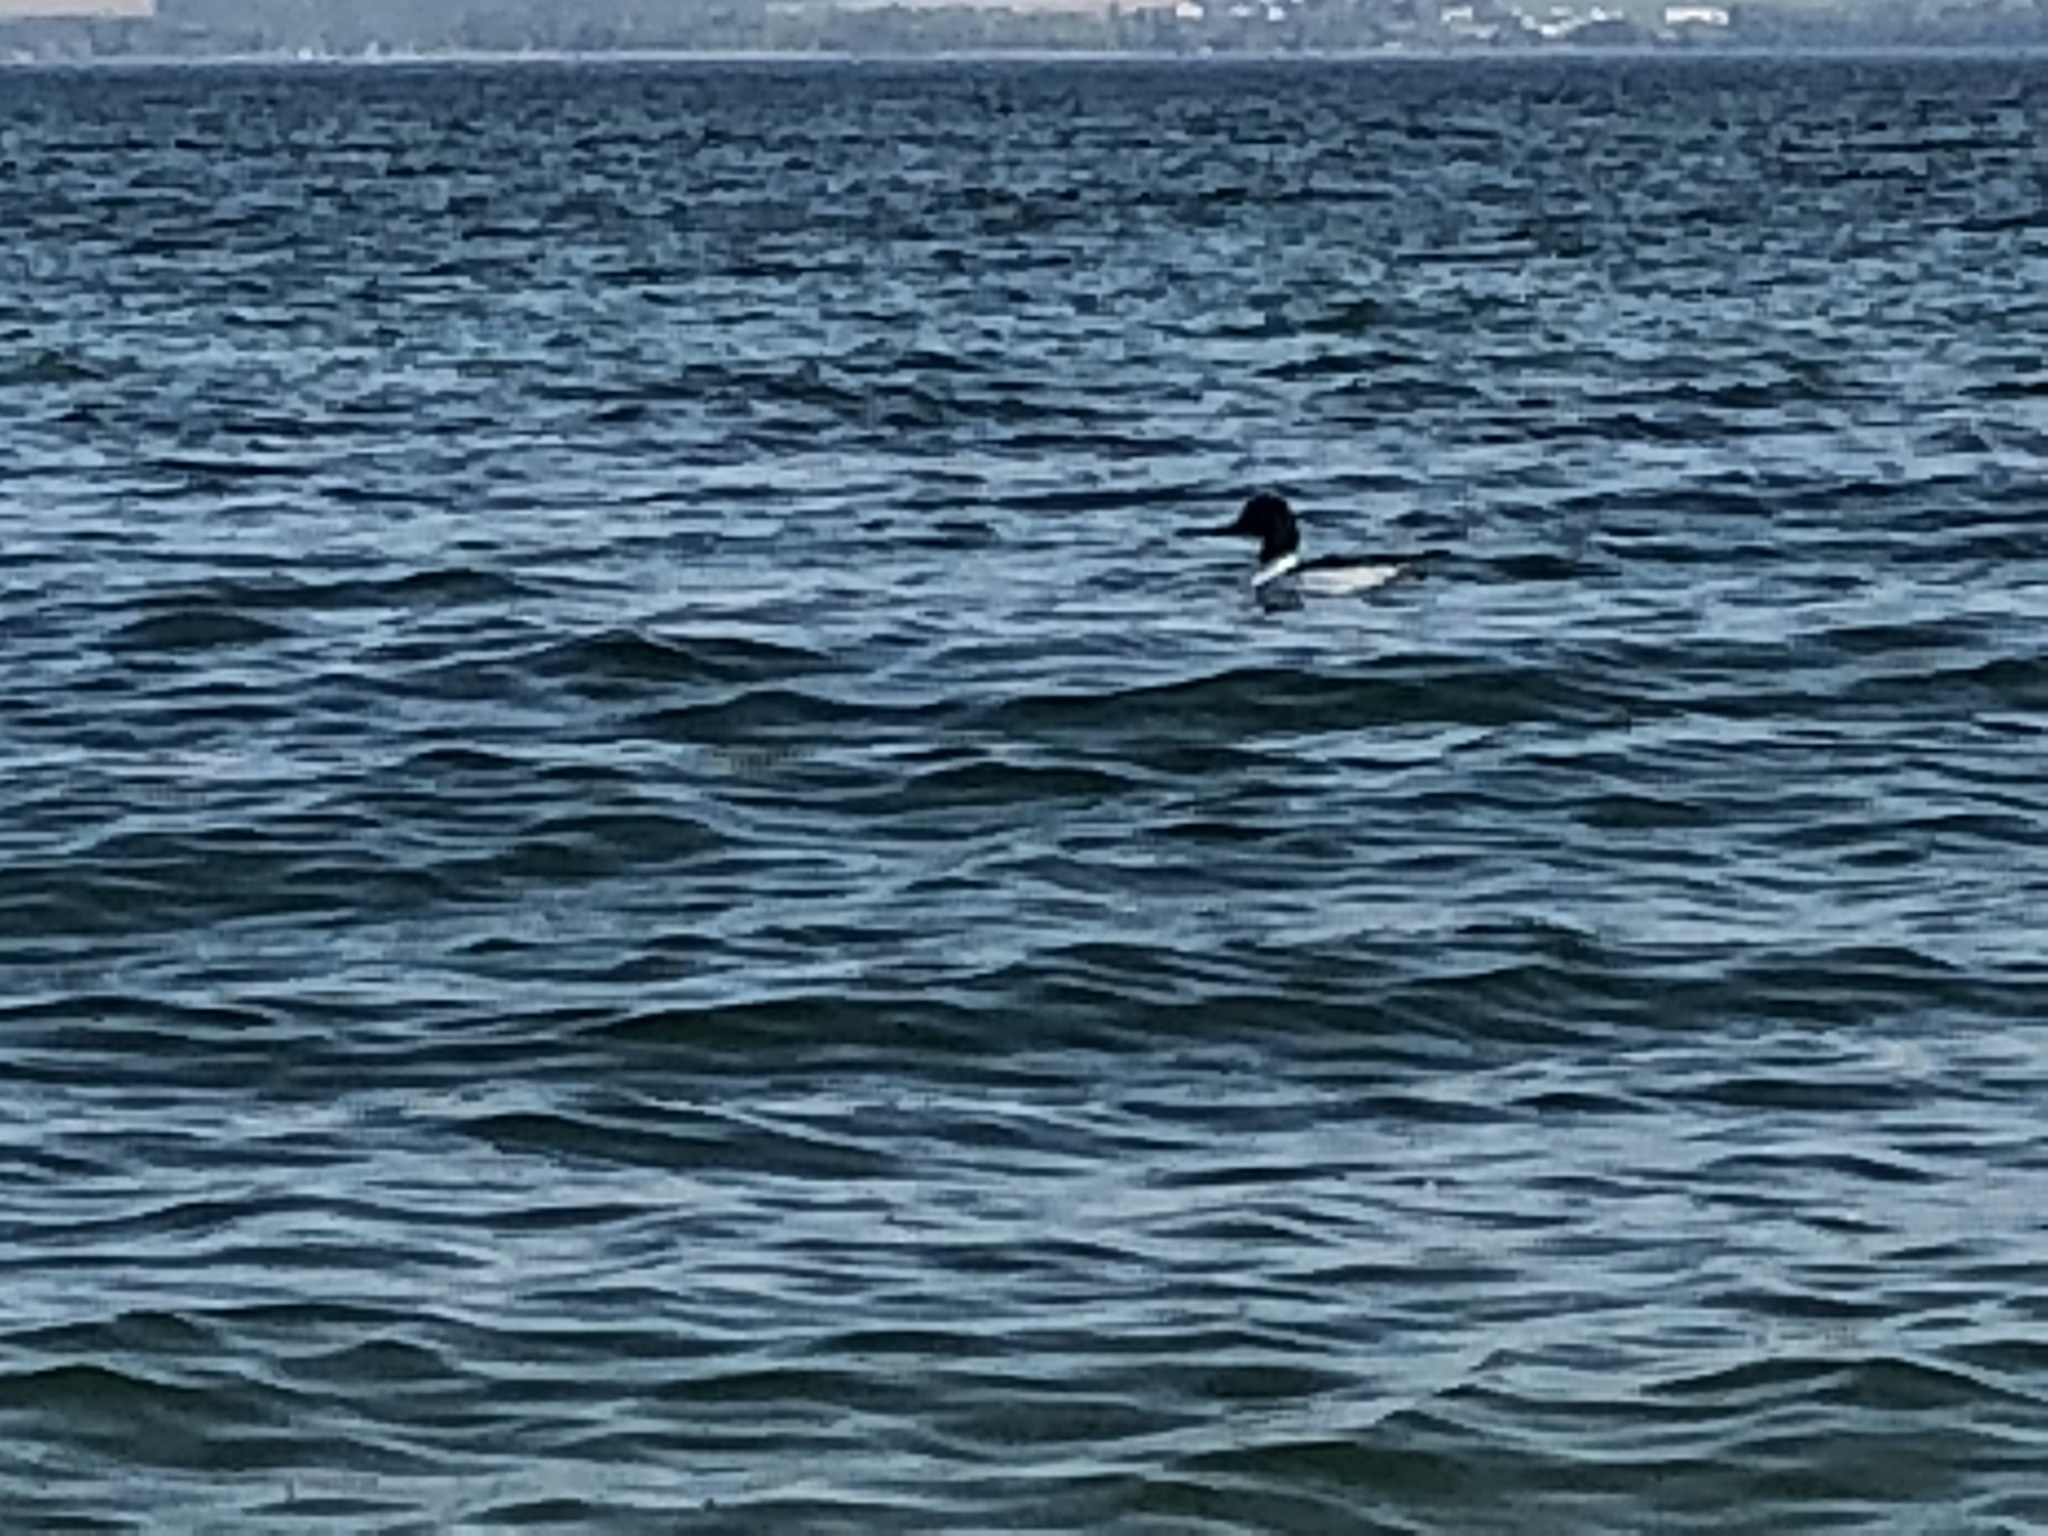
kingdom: Animalia
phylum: Chordata
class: Aves
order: Anseriformes
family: Anatidae
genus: Mergus
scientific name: Mergus merganser
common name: Common merganser
